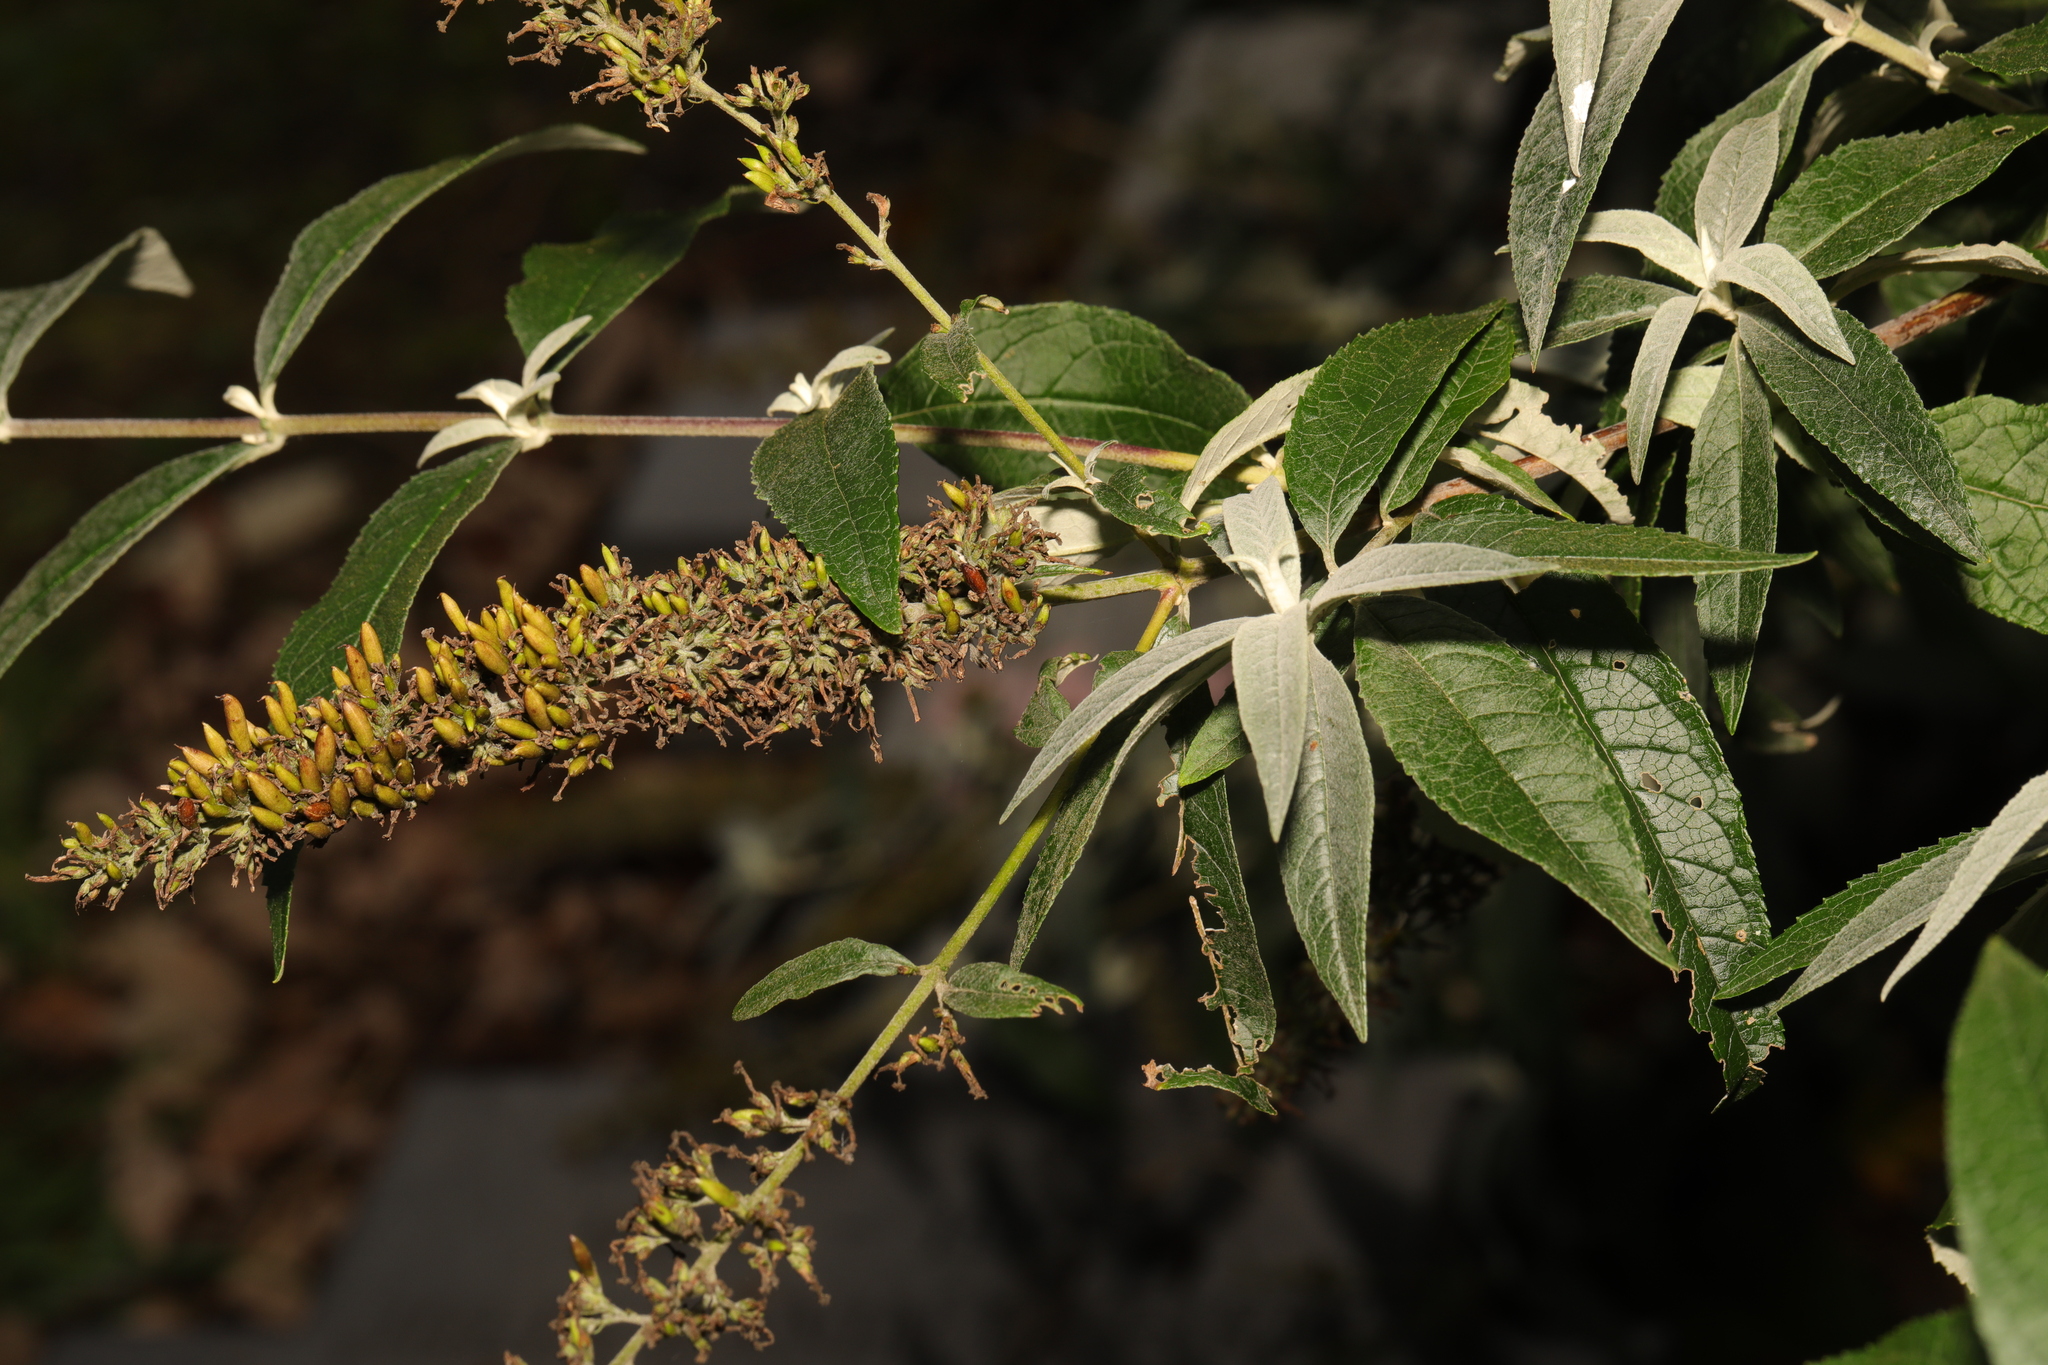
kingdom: Plantae
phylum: Tracheophyta
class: Magnoliopsida
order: Lamiales
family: Scrophulariaceae
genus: Buddleja
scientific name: Buddleja davidii
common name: Butterfly-bush
